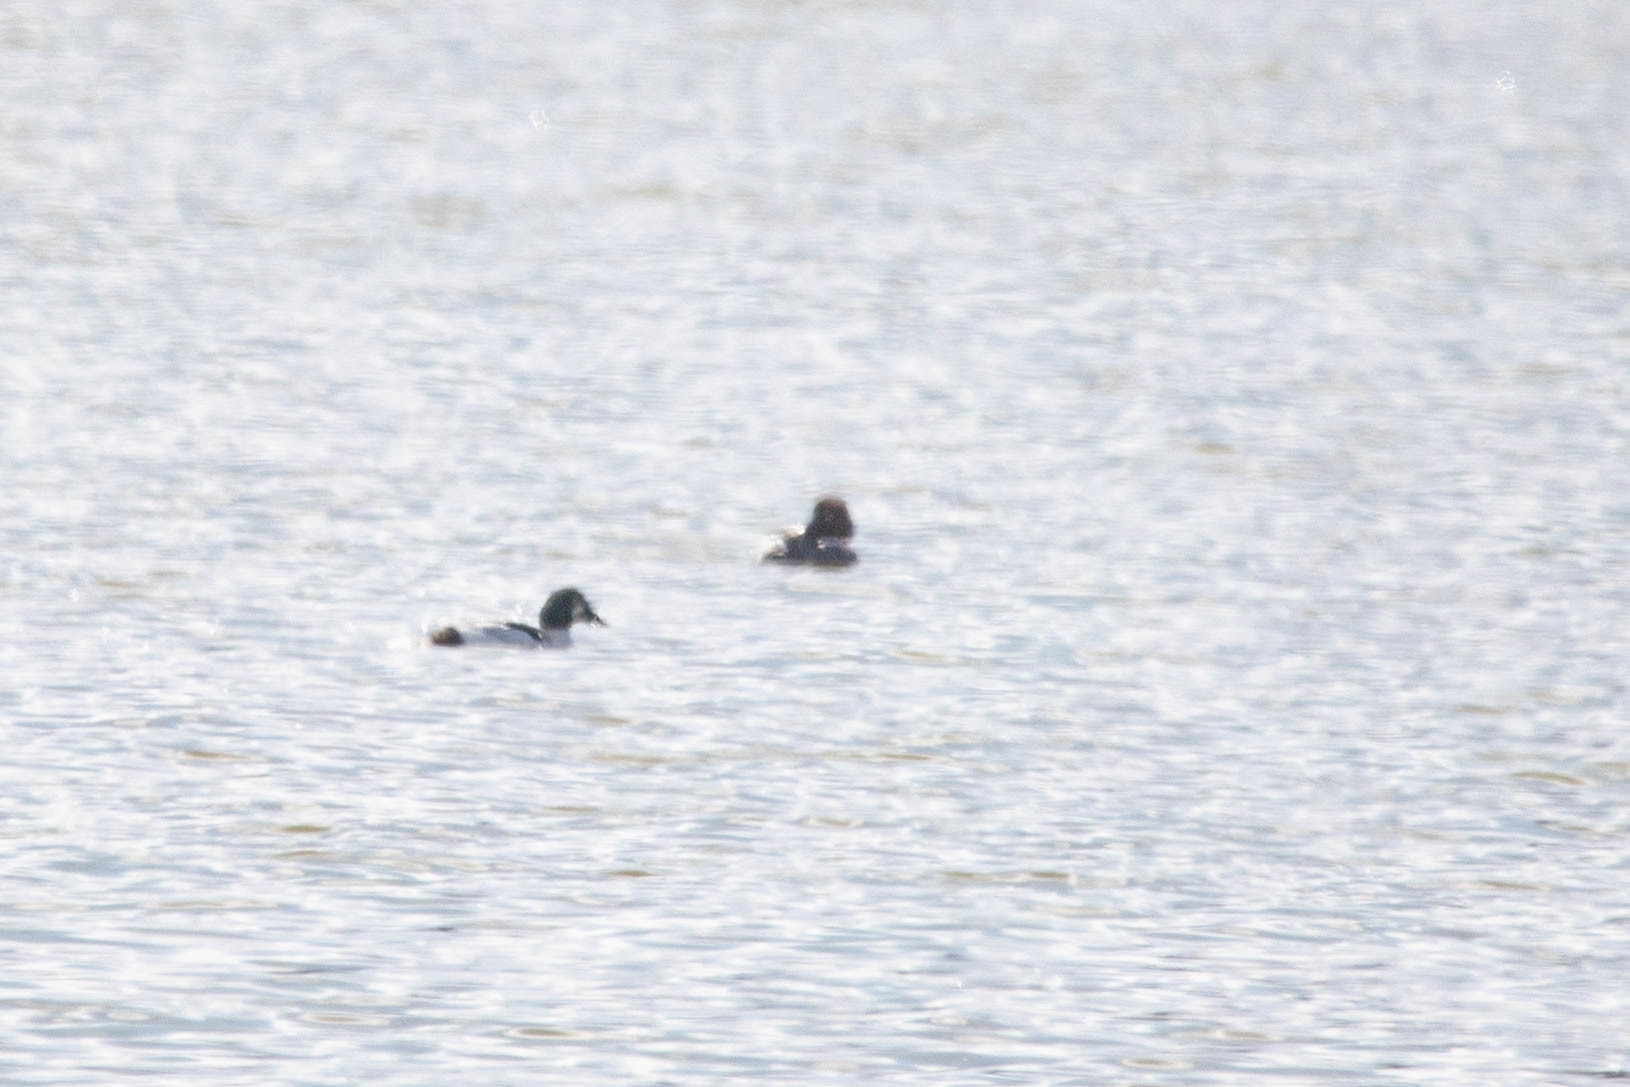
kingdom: Animalia
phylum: Chordata
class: Aves
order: Anseriformes
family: Anatidae
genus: Bucephala
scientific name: Bucephala clangula
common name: Common goldeneye
